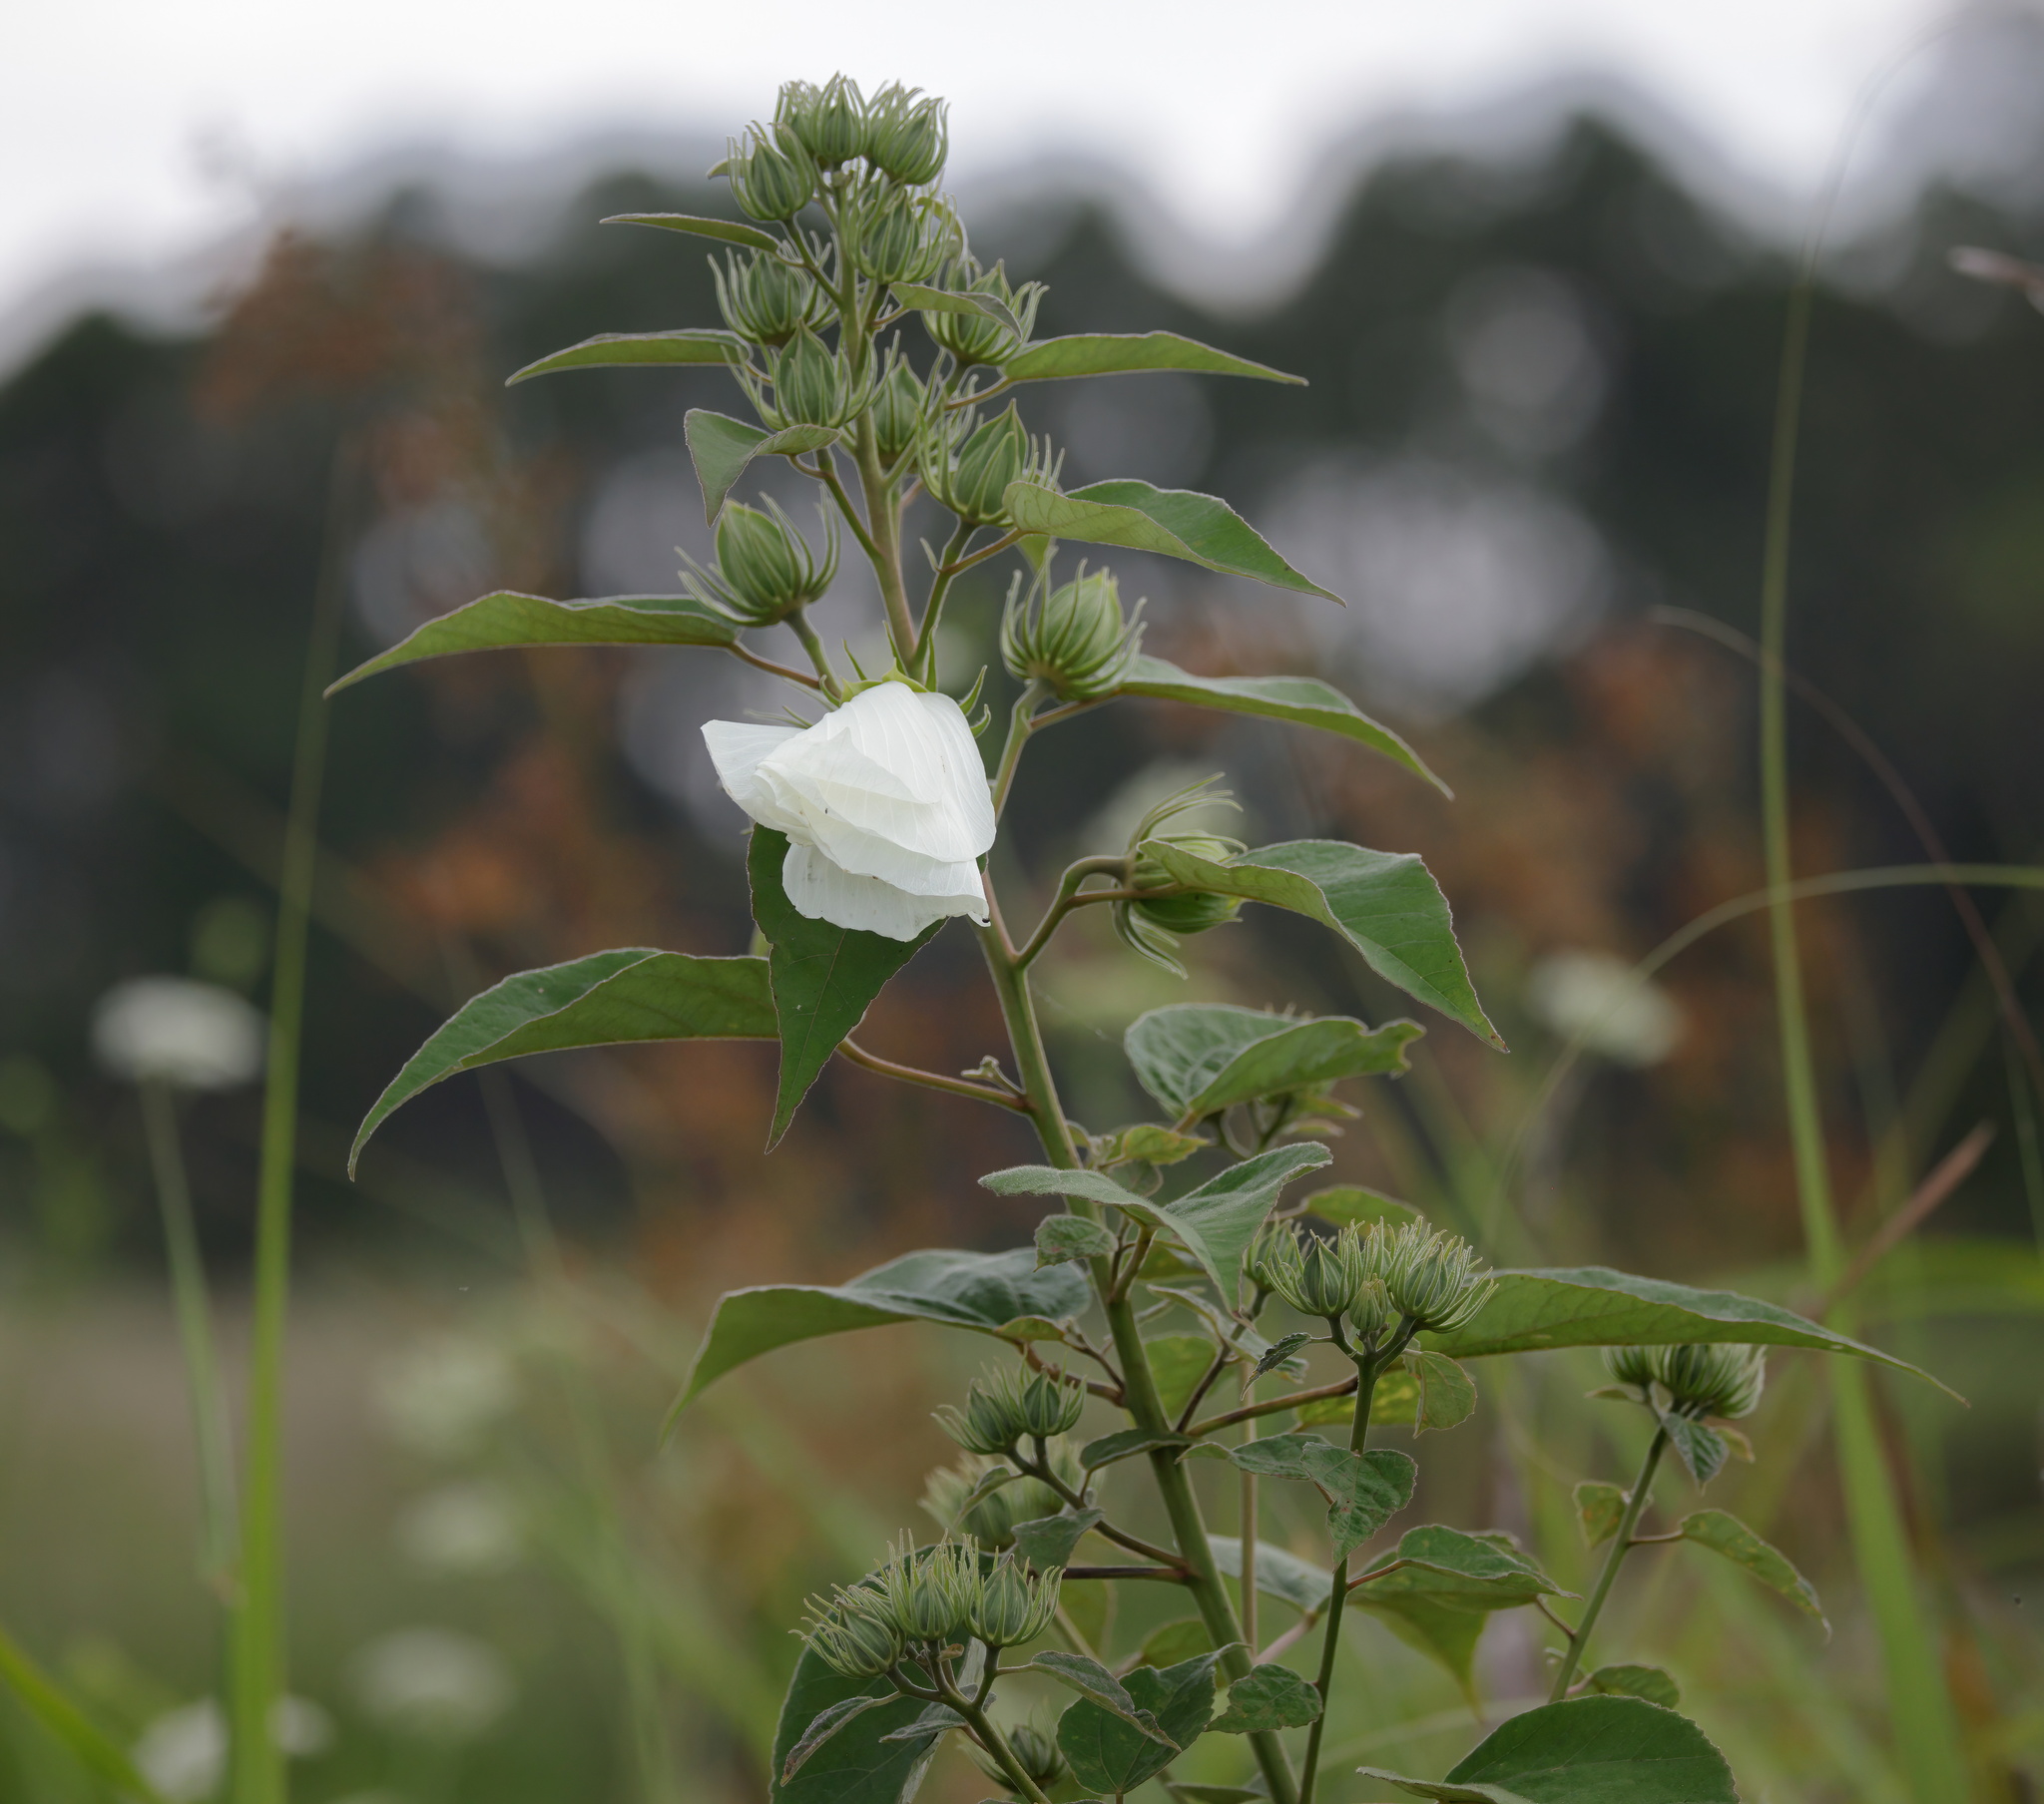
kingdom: Plantae
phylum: Tracheophyta
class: Magnoliopsida
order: Malvales
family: Malvaceae
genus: Hibiscus
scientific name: Hibiscus moscheutos
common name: Common rose-mallow
